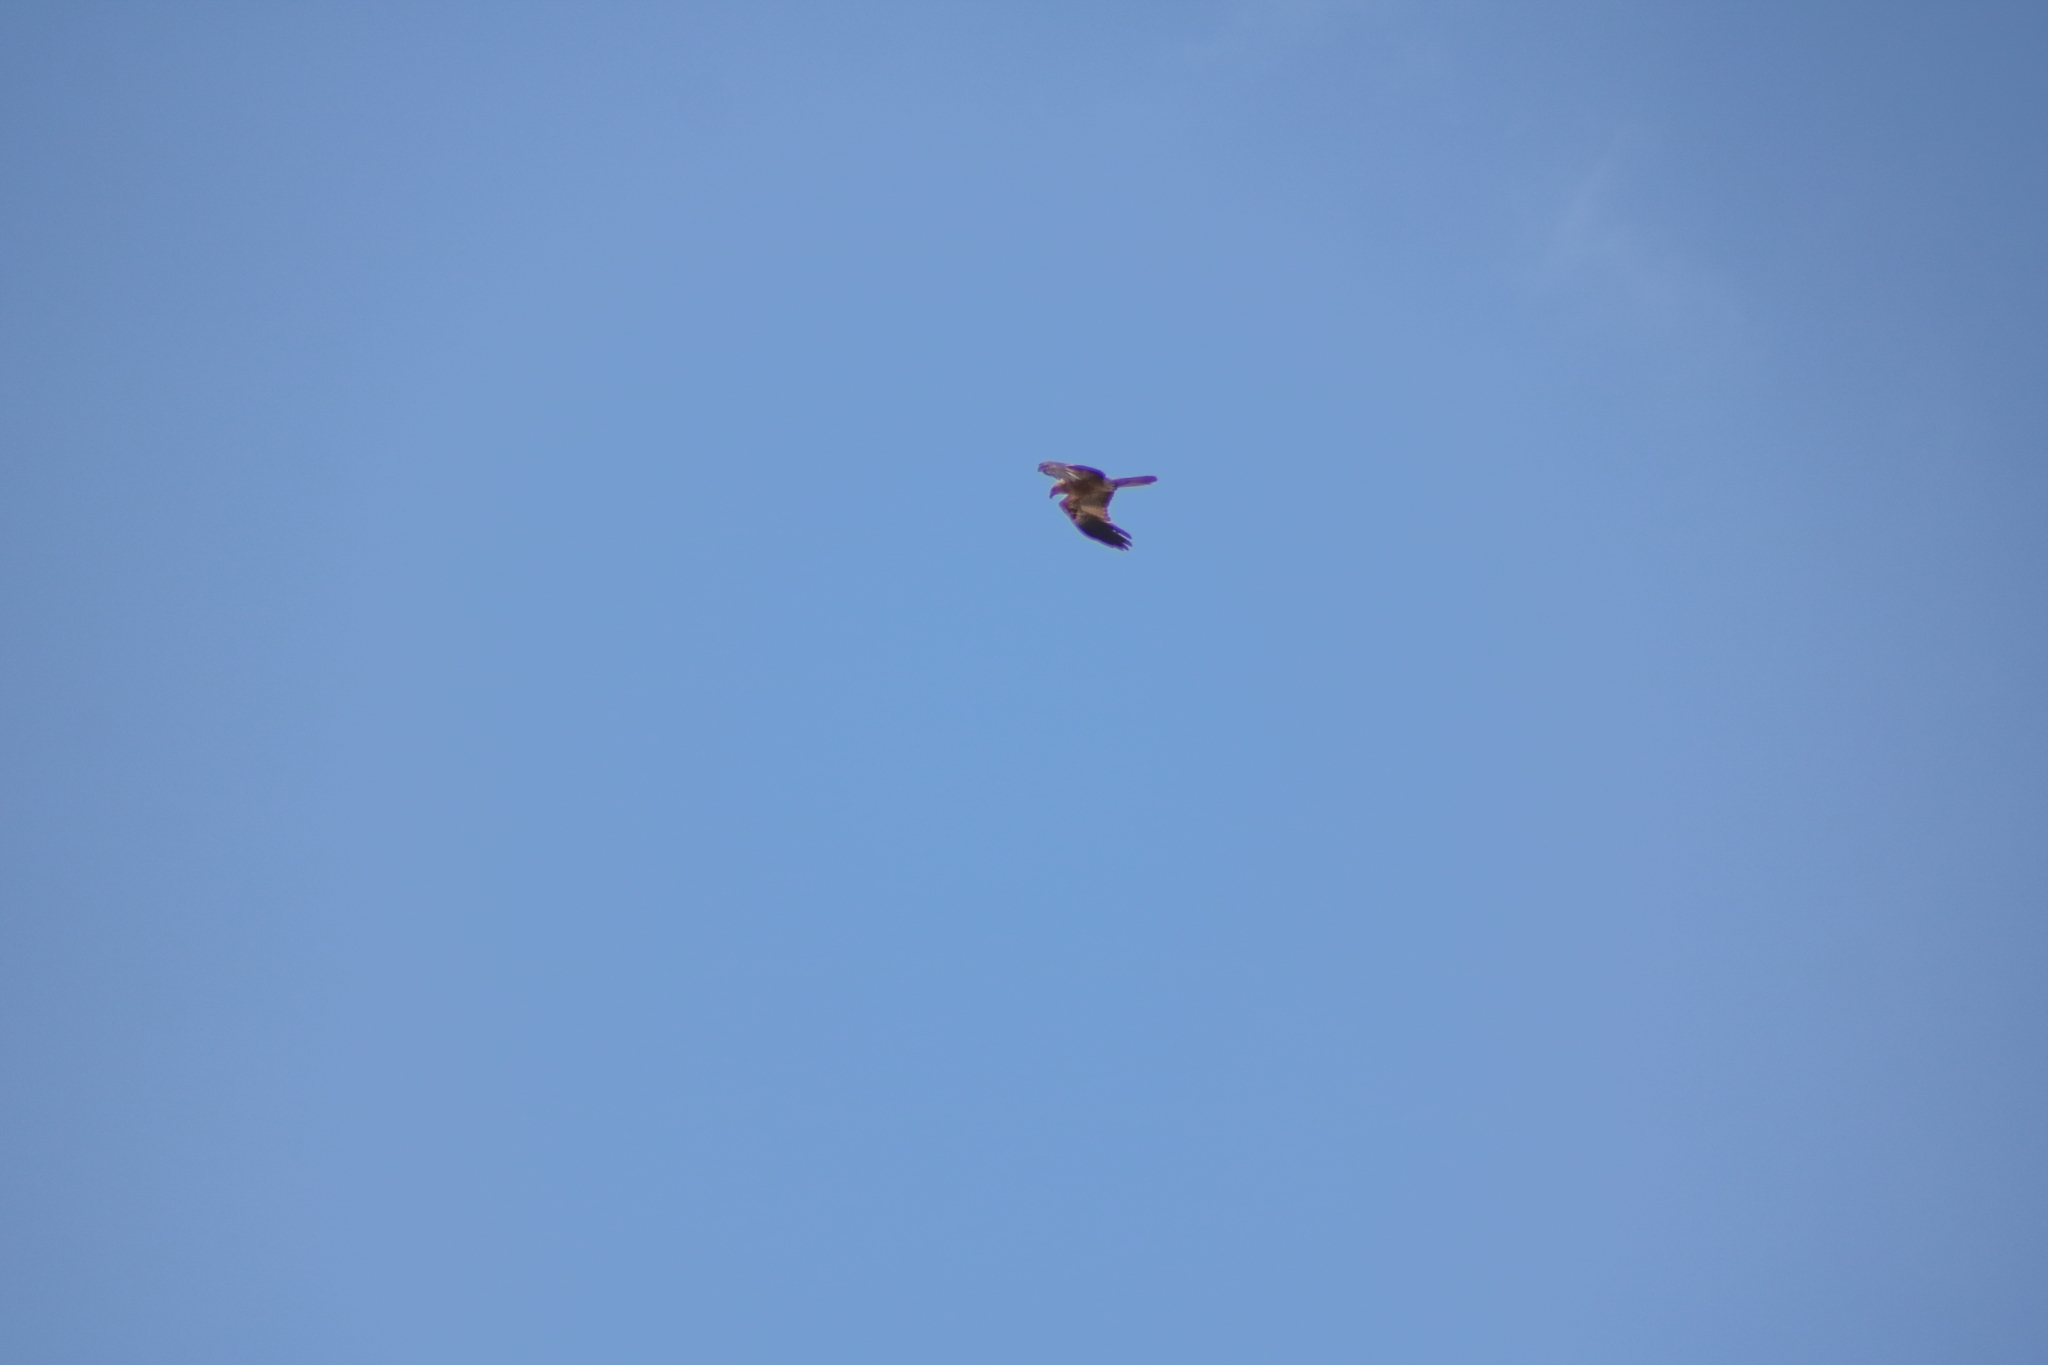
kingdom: Animalia
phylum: Chordata
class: Aves
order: Accipitriformes
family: Accipitridae
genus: Haliastur
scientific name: Haliastur sphenurus
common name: Whistling kite
